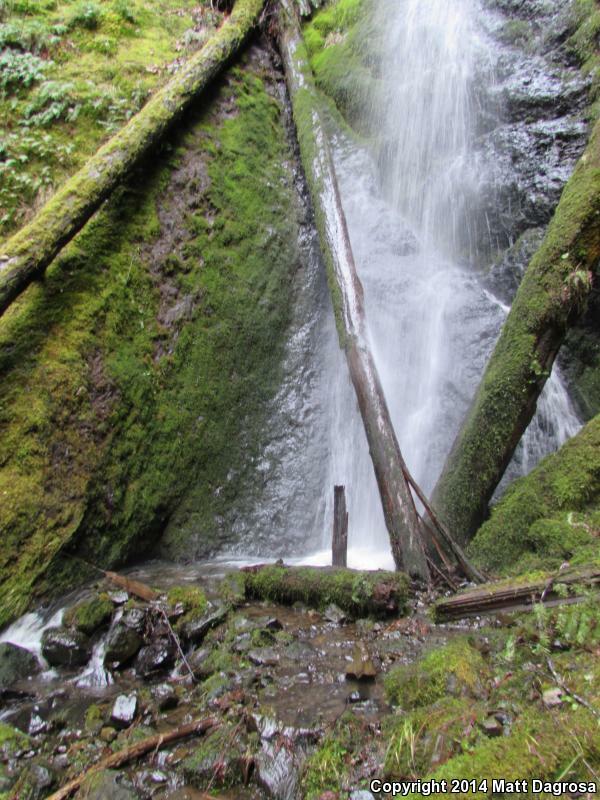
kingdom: Animalia
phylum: Chordata
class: Amphibia
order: Caudata
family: Rhyacotritonidae
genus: Rhyacotriton
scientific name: Rhyacotriton cascadae
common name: Cascade torrent salamander
